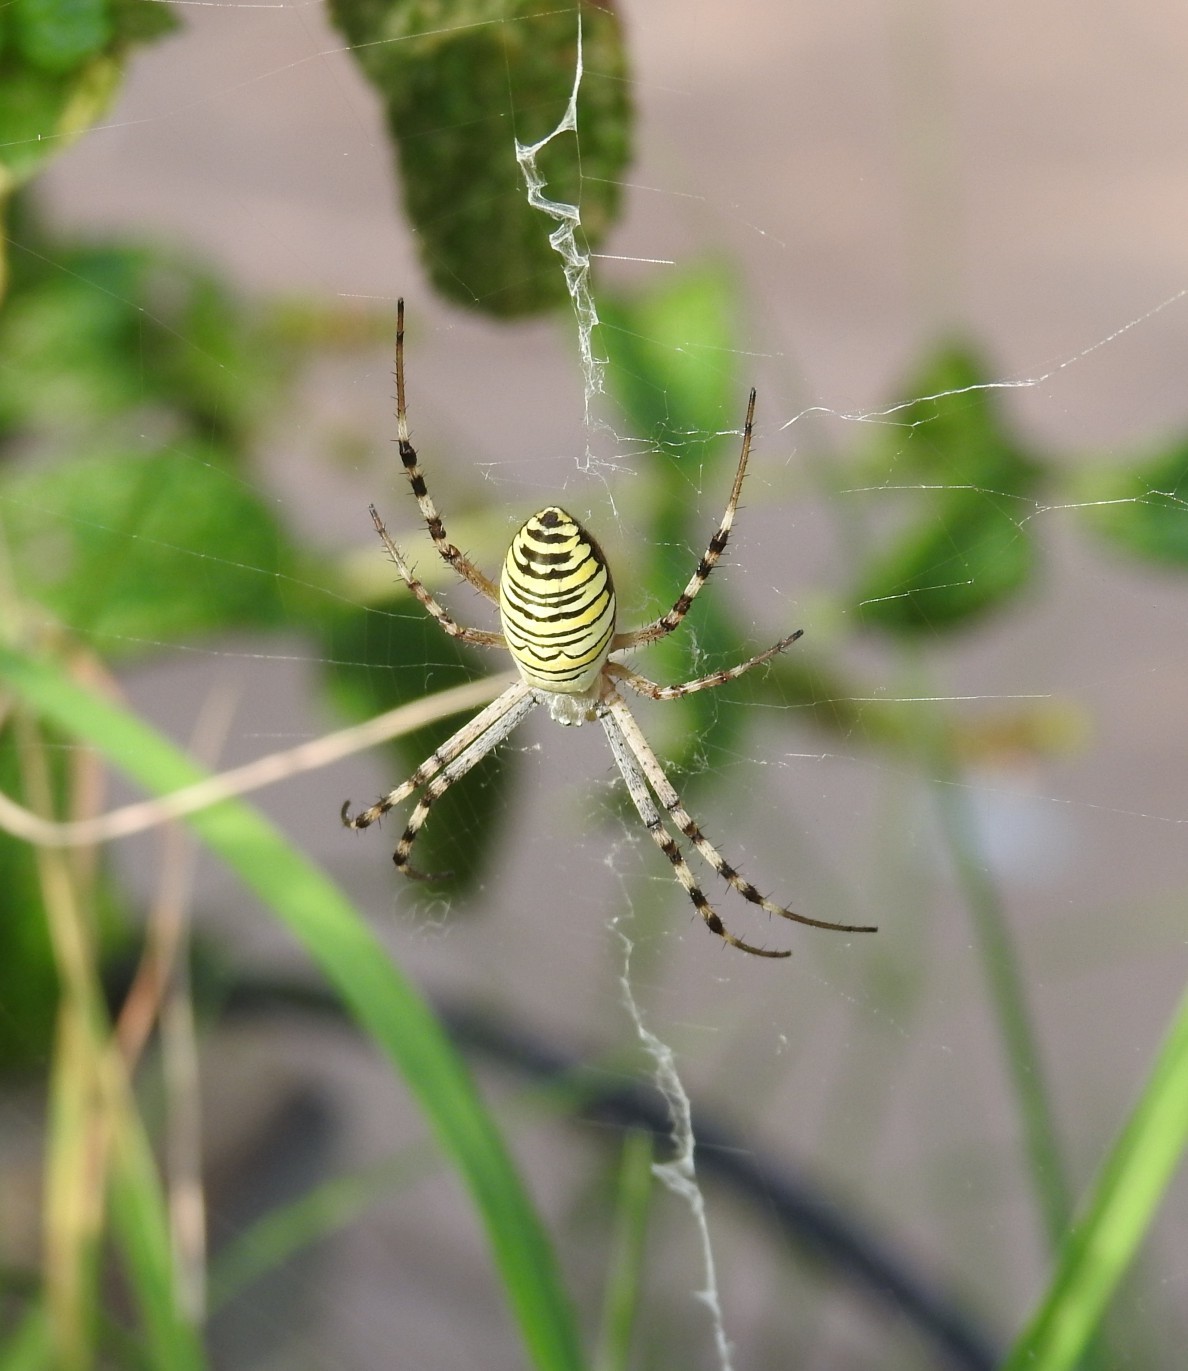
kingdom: Animalia
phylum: Arthropoda
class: Arachnida
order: Araneae
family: Araneidae
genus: Argiope
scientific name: Argiope bruennichi
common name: Wasp spider
